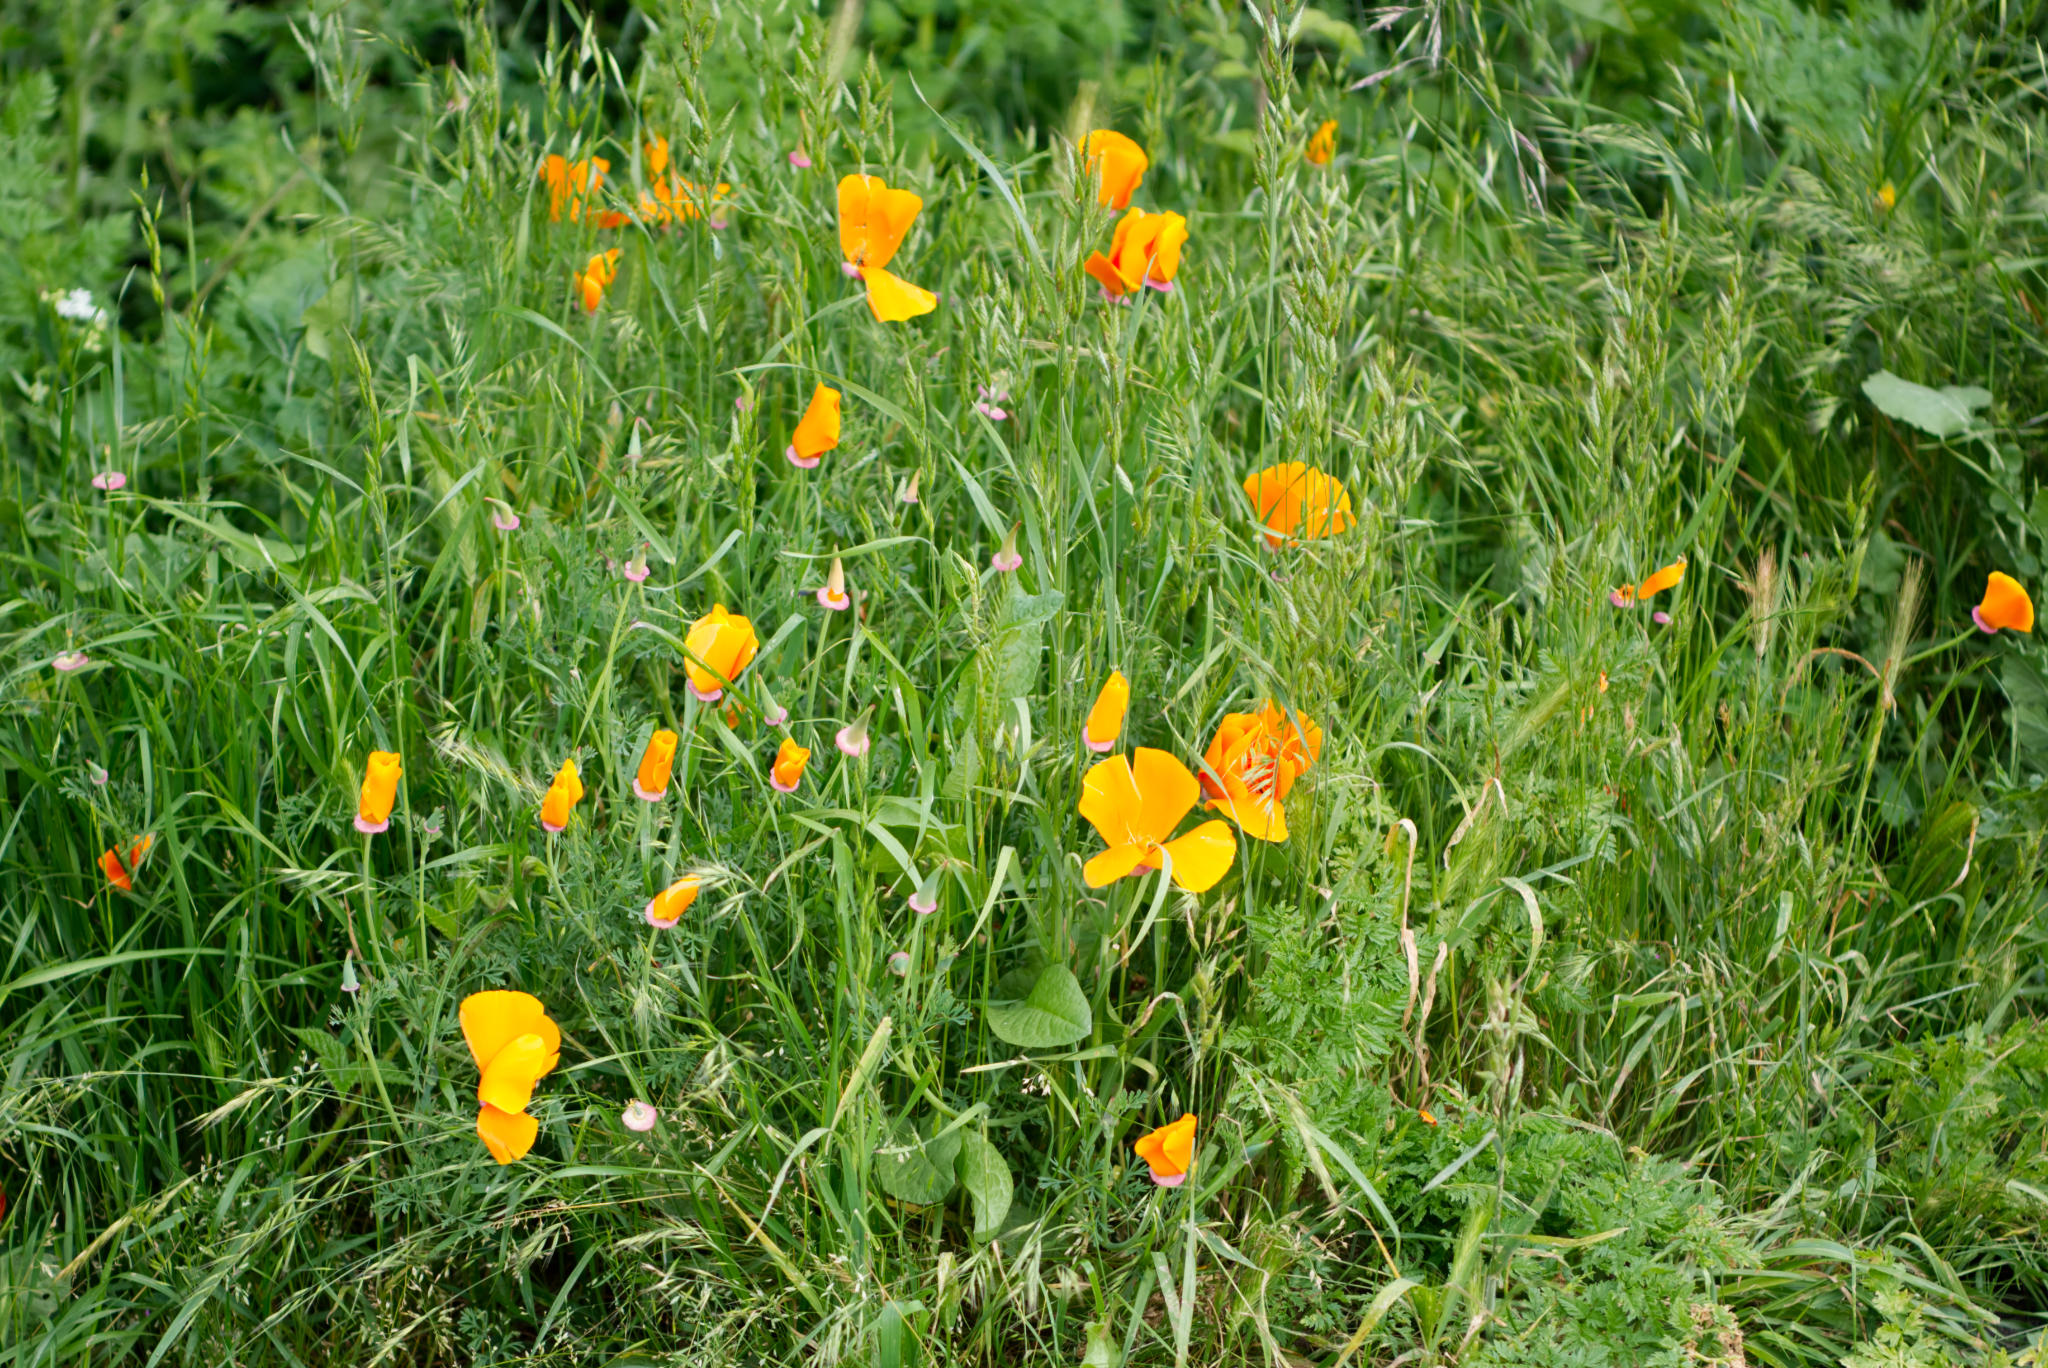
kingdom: Plantae
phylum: Tracheophyta
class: Magnoliopsida
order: Ranunculales
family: Papaveraceae
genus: Eschscholzia
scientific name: Eschscholzia californica
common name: California poppy
